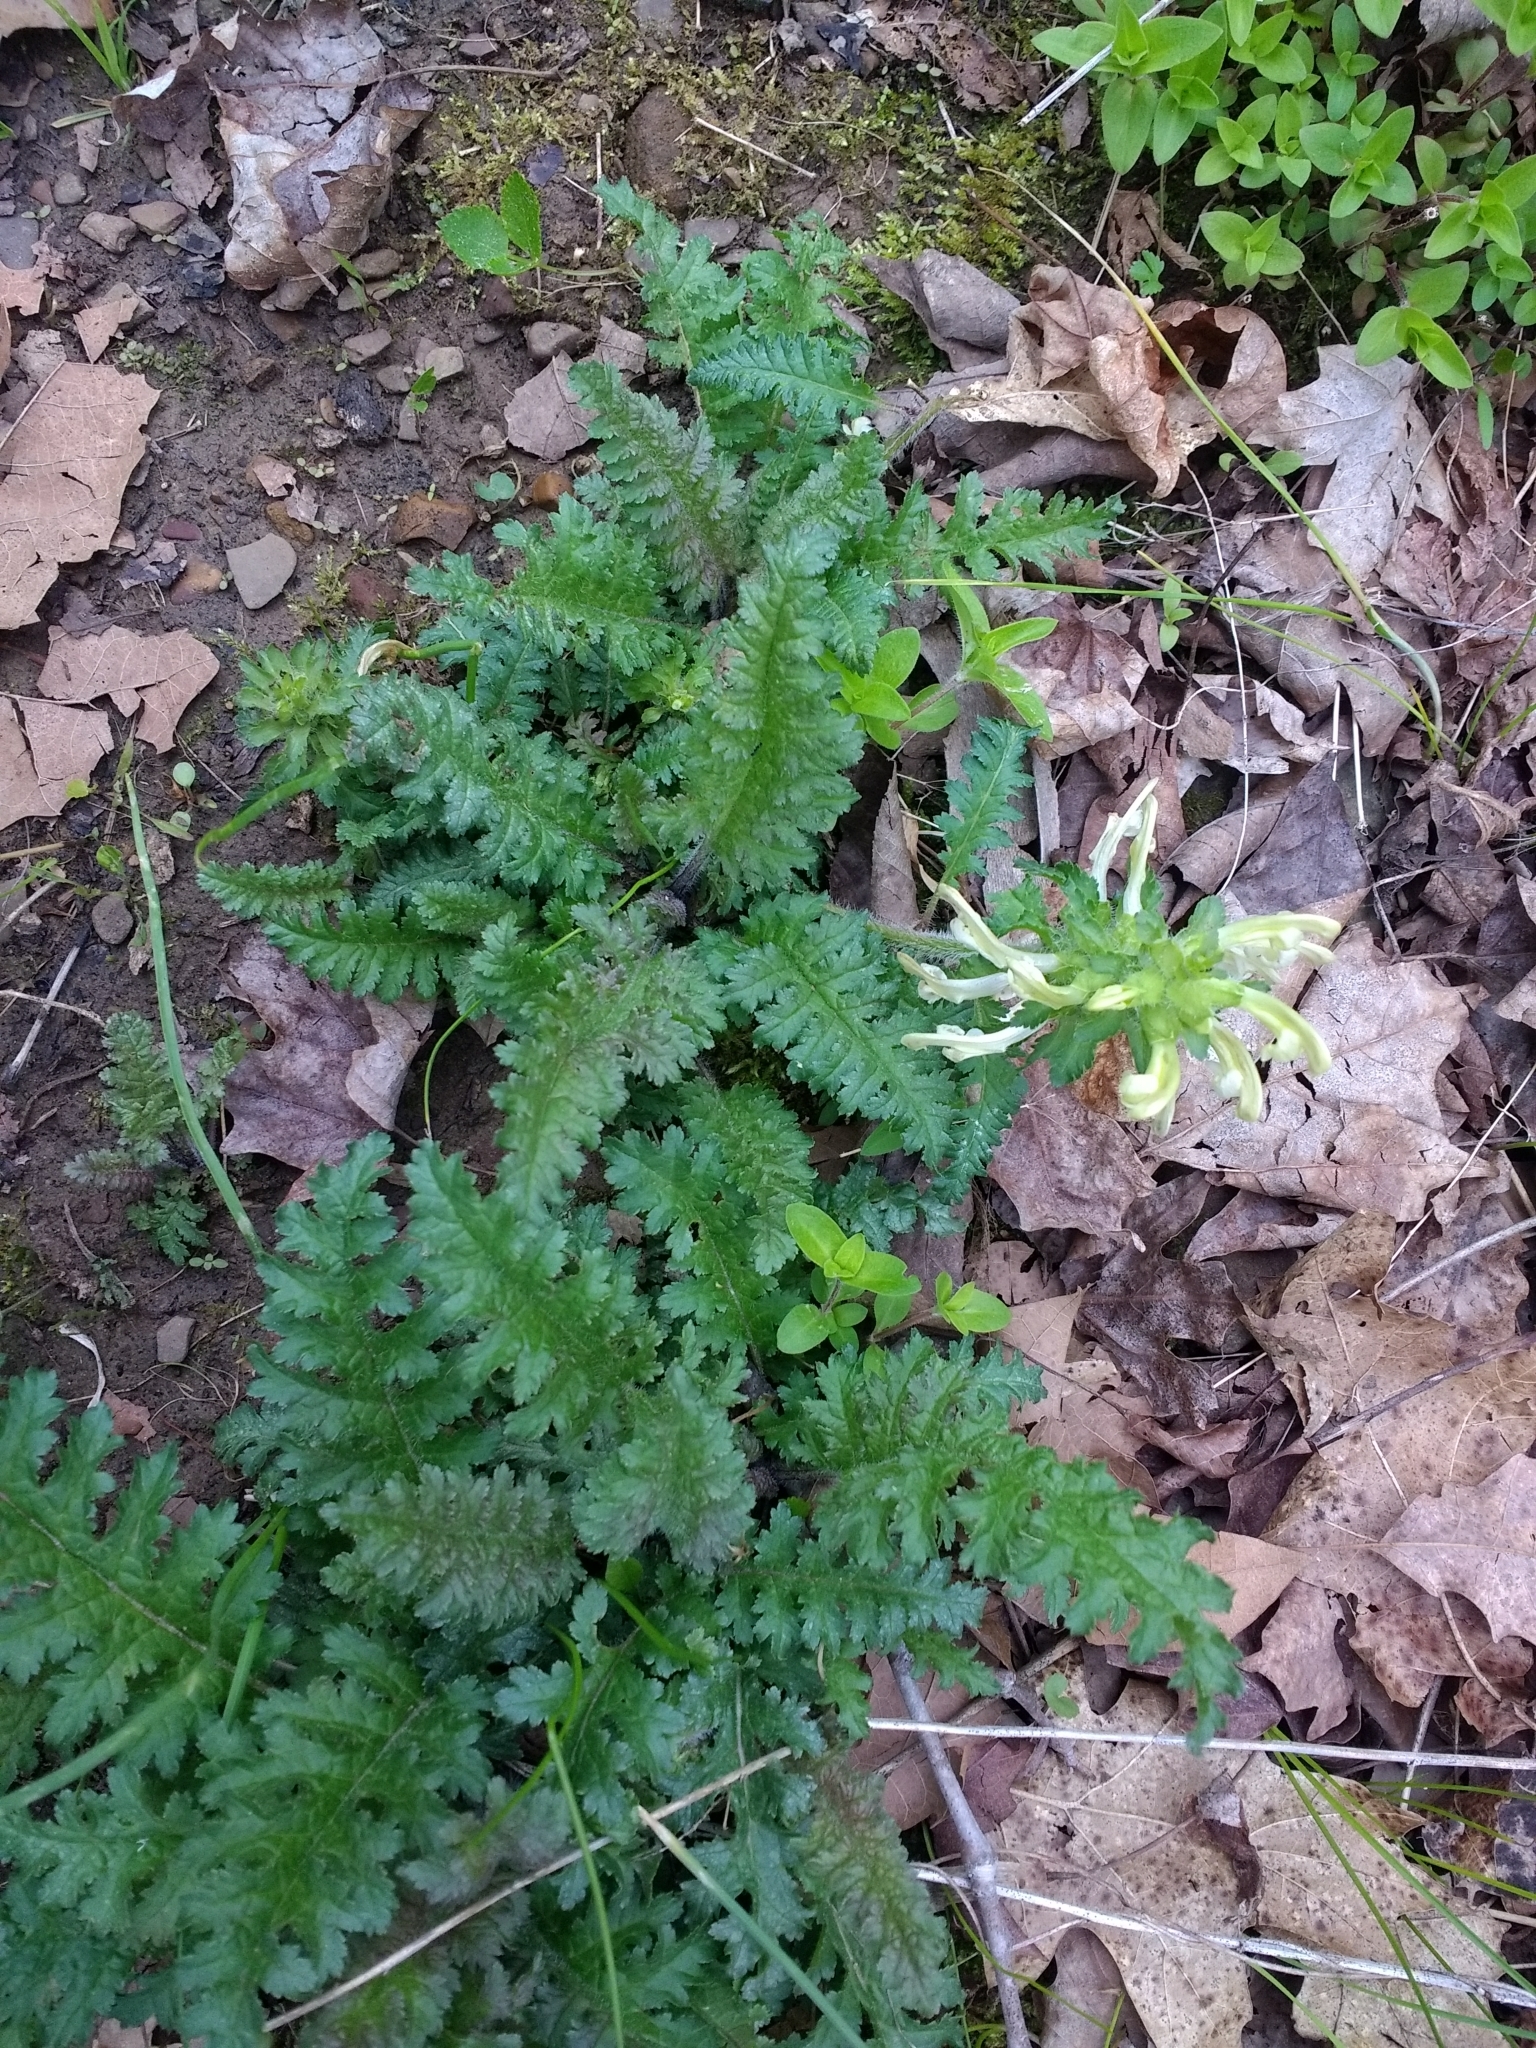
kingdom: Plantae
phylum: Tracheophyta
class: Magnoliopsida
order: Lamiales
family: Orobanchaceae
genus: Pedicularis
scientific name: Pedicularis canadensis
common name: Early lousewort
